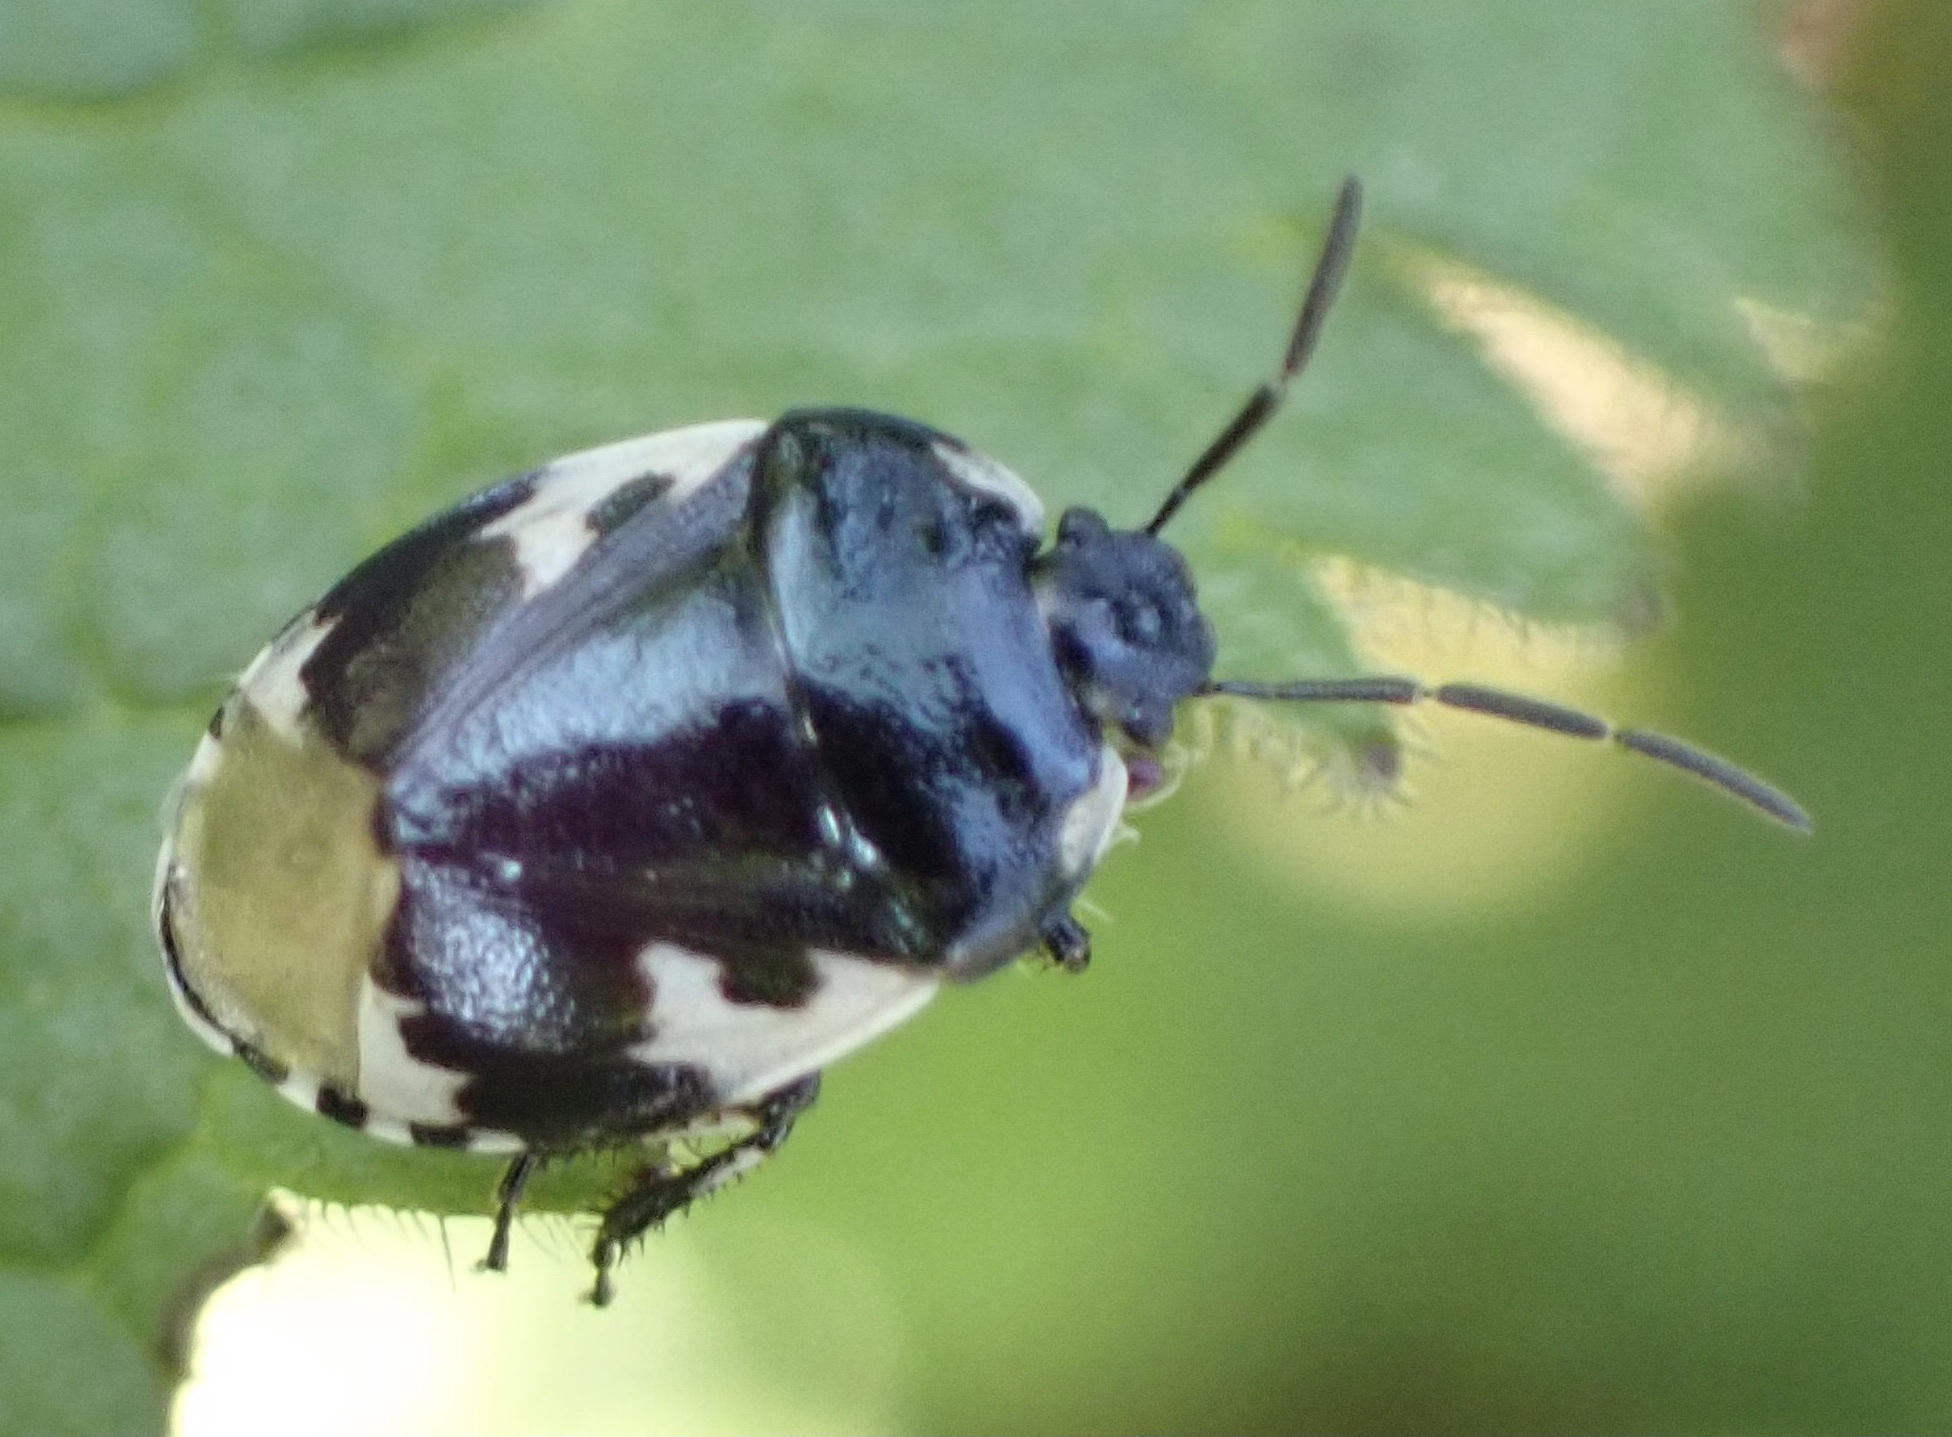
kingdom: Animalia
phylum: Arthropoda
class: Insecta
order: Hemiptera
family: Cydnidae
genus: Tritomegas
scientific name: Tritomegas bicolor
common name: Pied shieldbug
